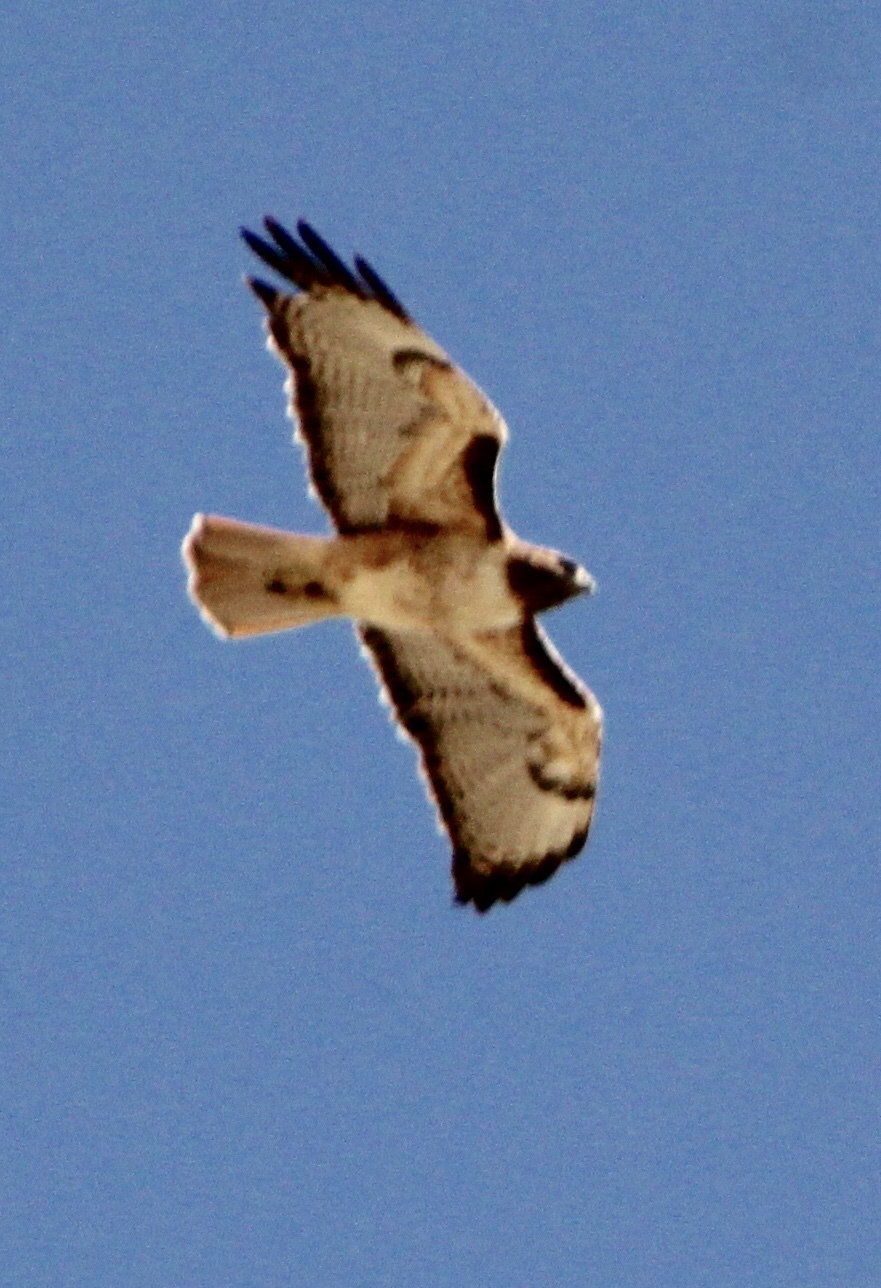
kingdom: Animalia
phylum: Chordata
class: Aves
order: Accipitriformes
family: Accipitridae
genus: Buteo
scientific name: Buteo jamaicensis
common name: Red-tailed hawk
